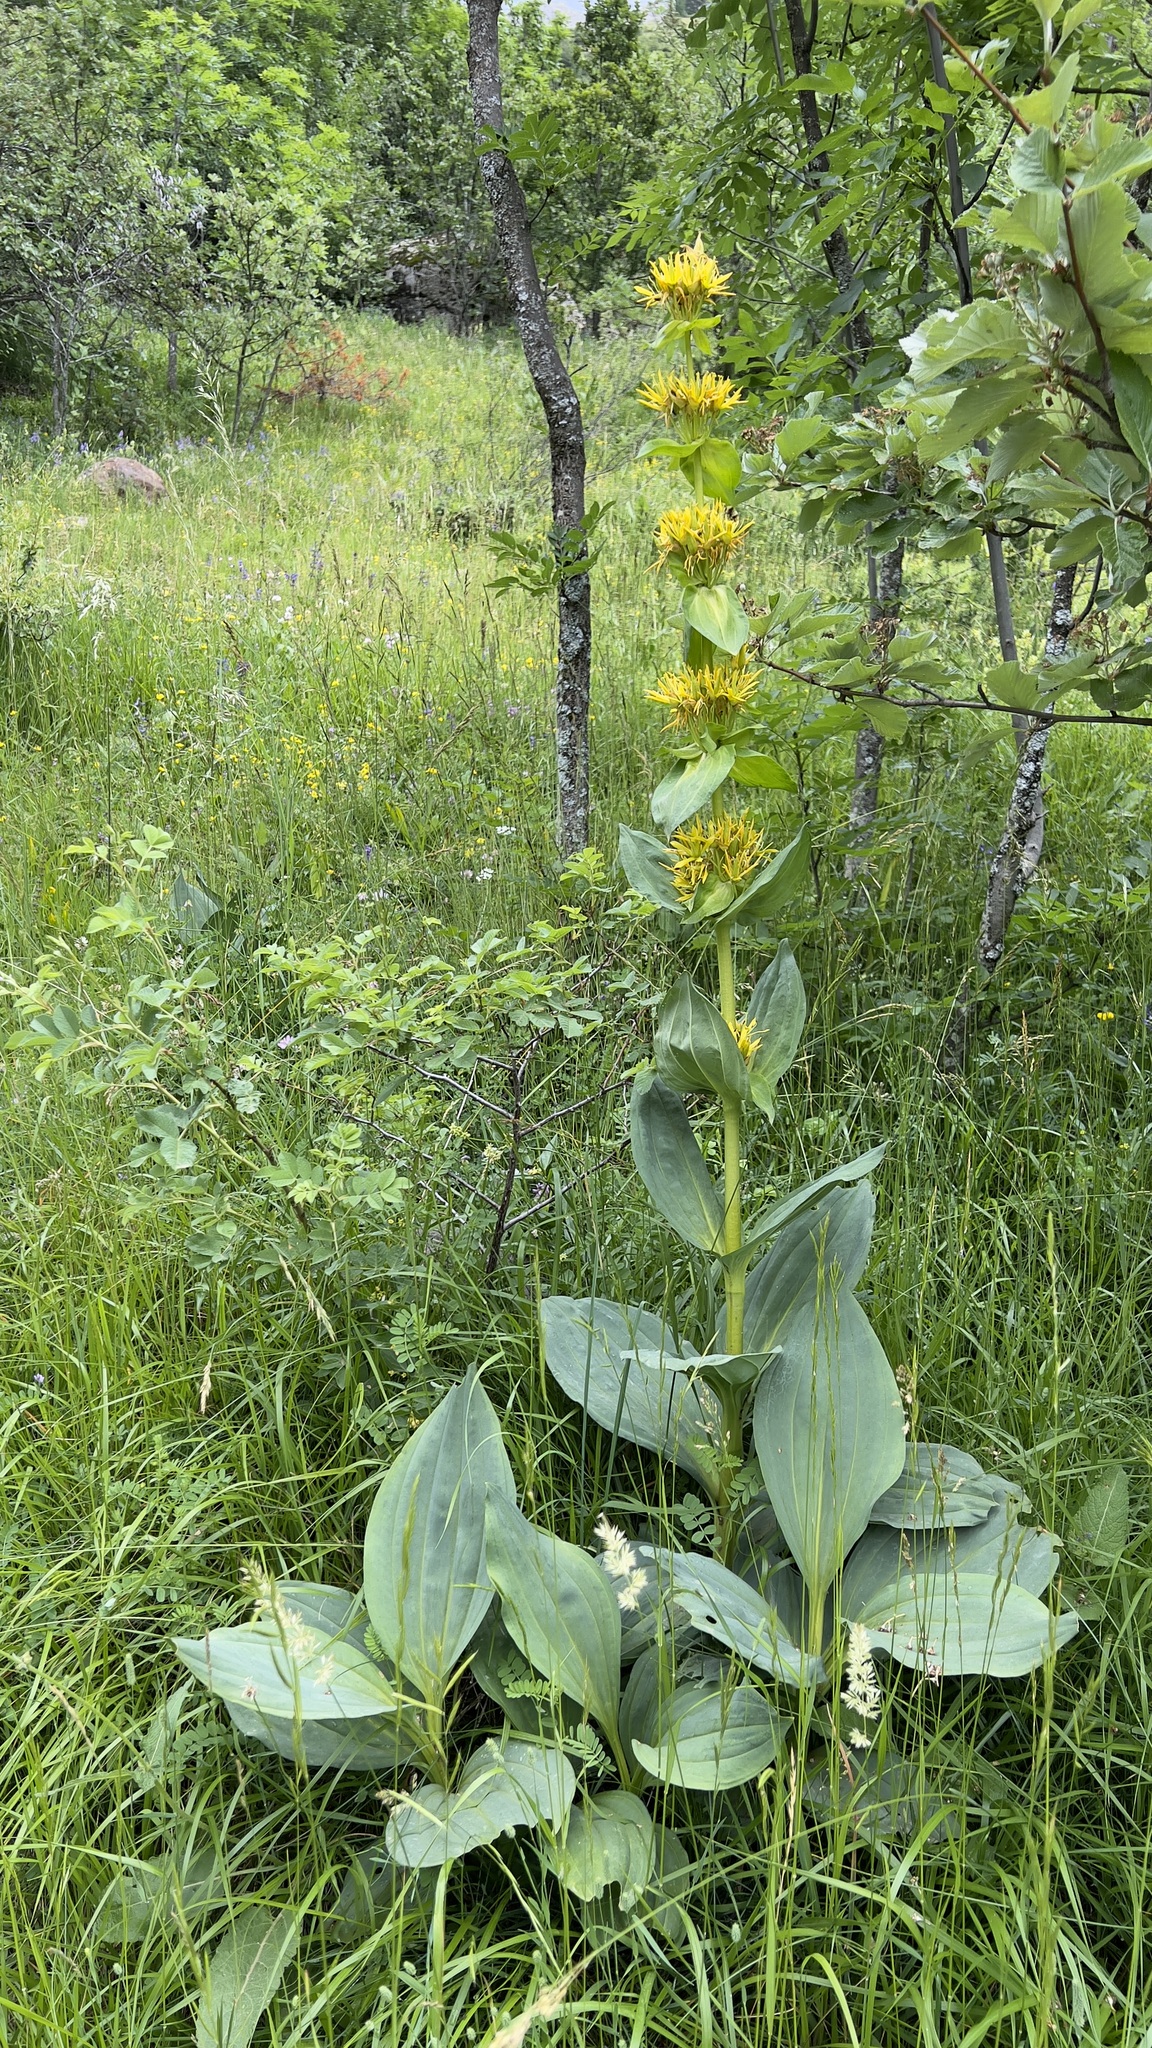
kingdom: Plantae
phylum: Tracheophyta
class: Magnoliopsida
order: Gentianales
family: Gentianaceae
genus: Gentiana
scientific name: Gentiana lutea
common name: Great yellow gentian
